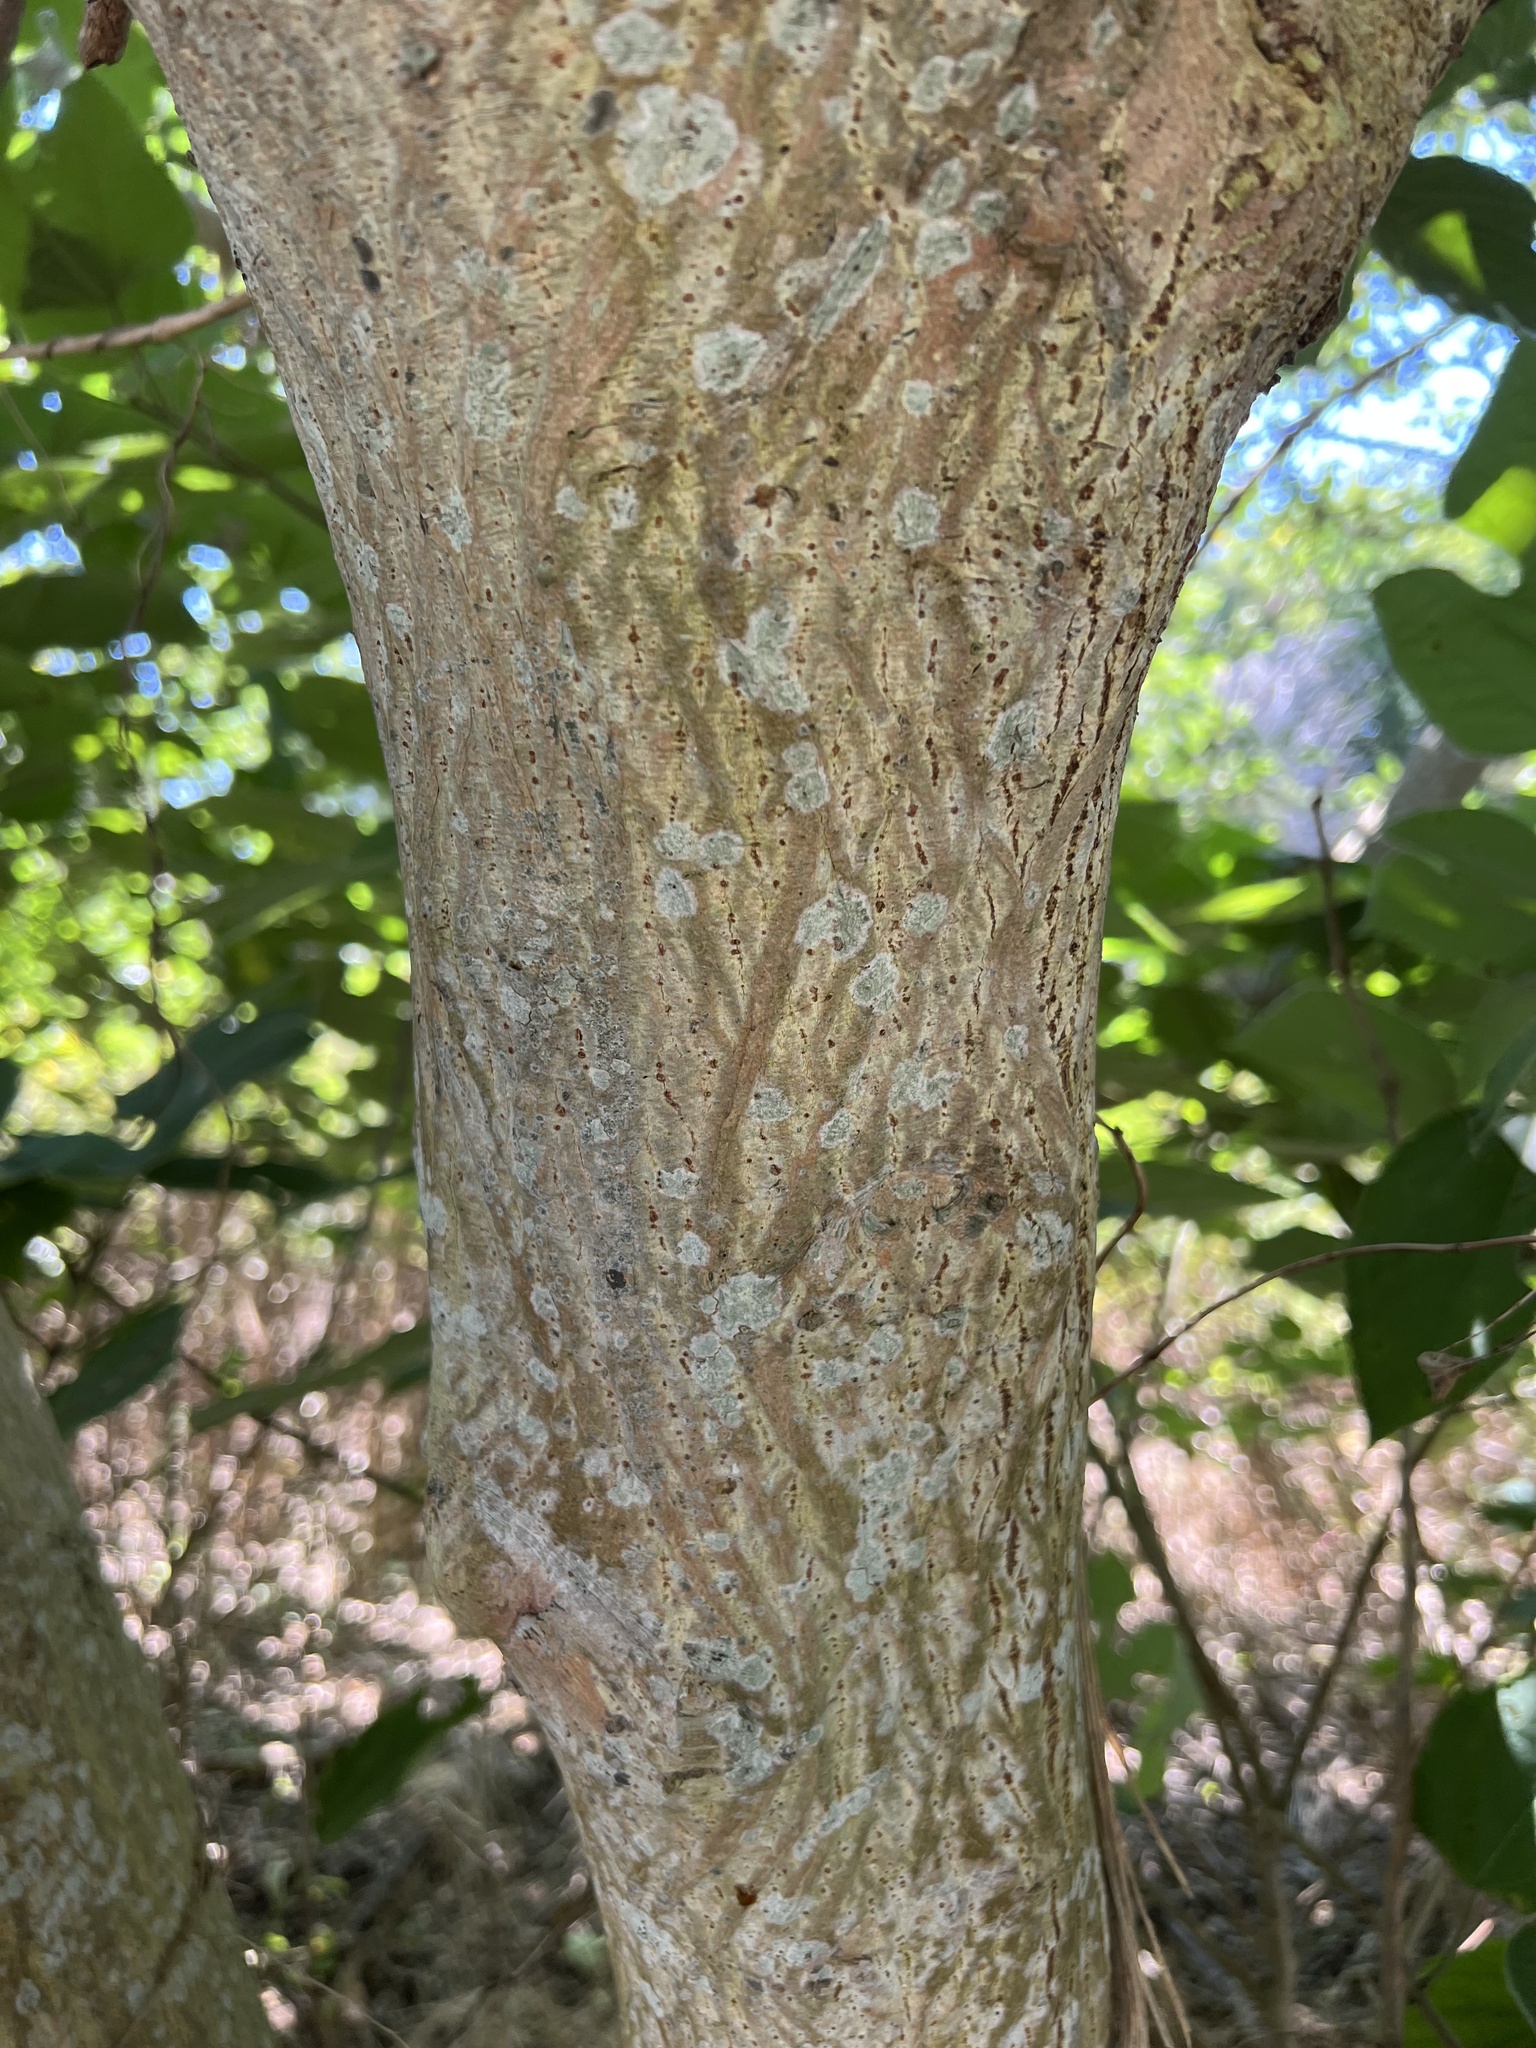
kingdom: Plantae
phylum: Tracheophyta
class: Magnoliopsida
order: Rosales
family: Moraceae
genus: Broussonetia
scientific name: Broussonetia papyrifera
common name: Paper mulberry
